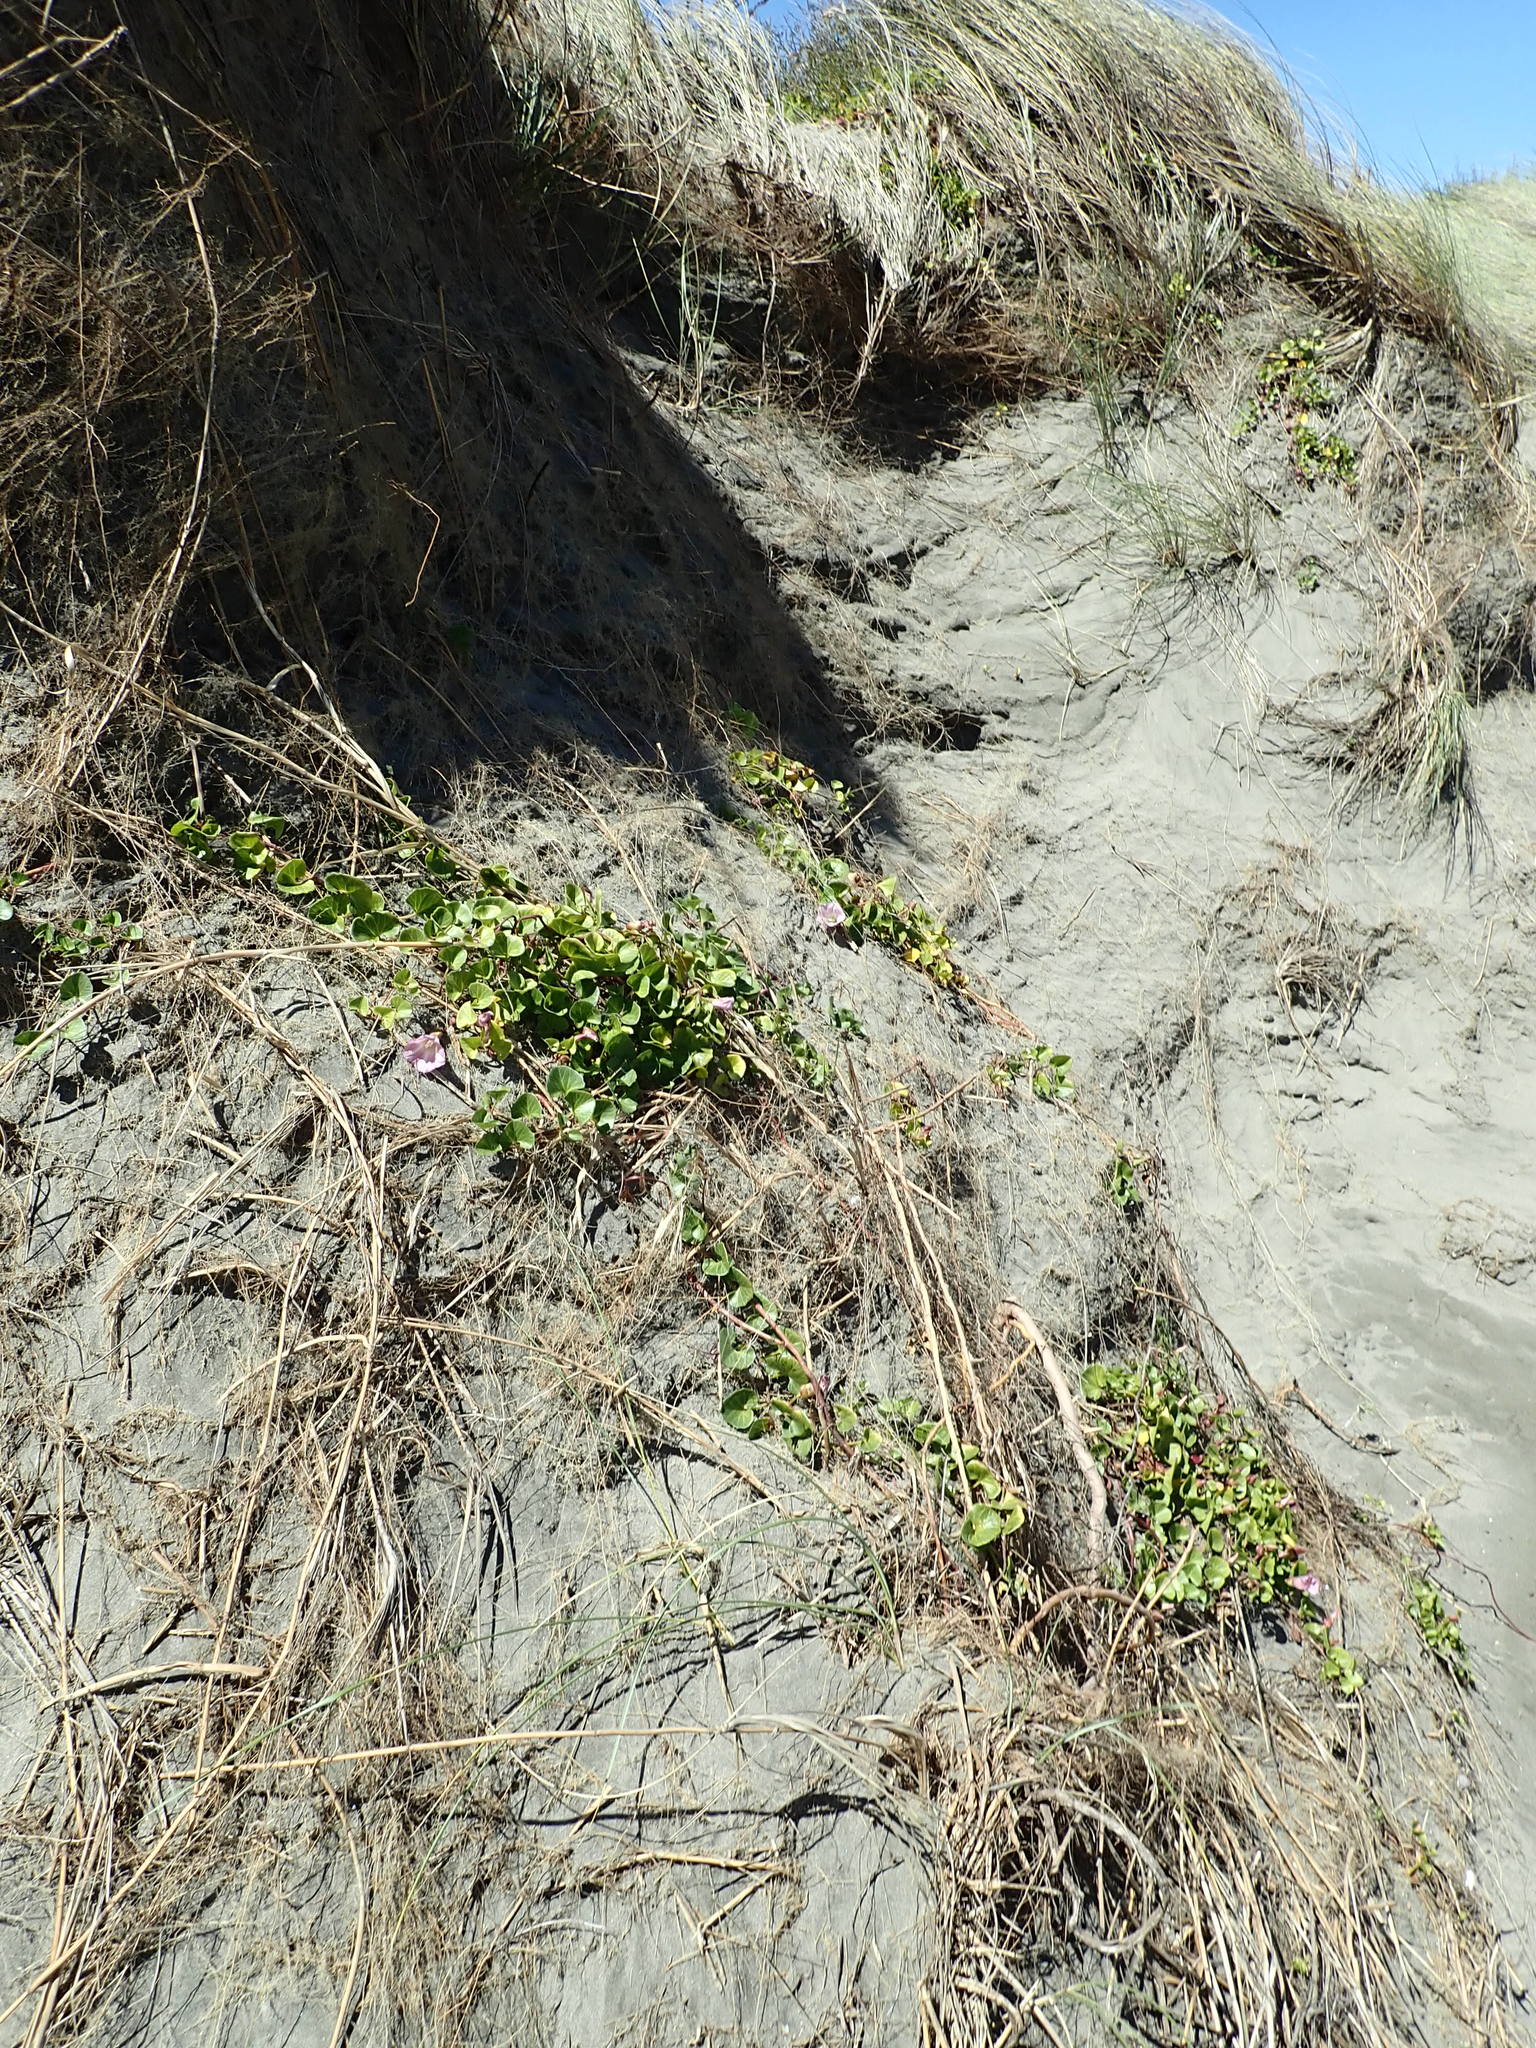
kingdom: Plantae
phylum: Tracheophyta
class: Magnoliopsida
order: Solanales
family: Convolvulaceae
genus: Calystegia
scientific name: Calystegia soldanella
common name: Sea bindweed
